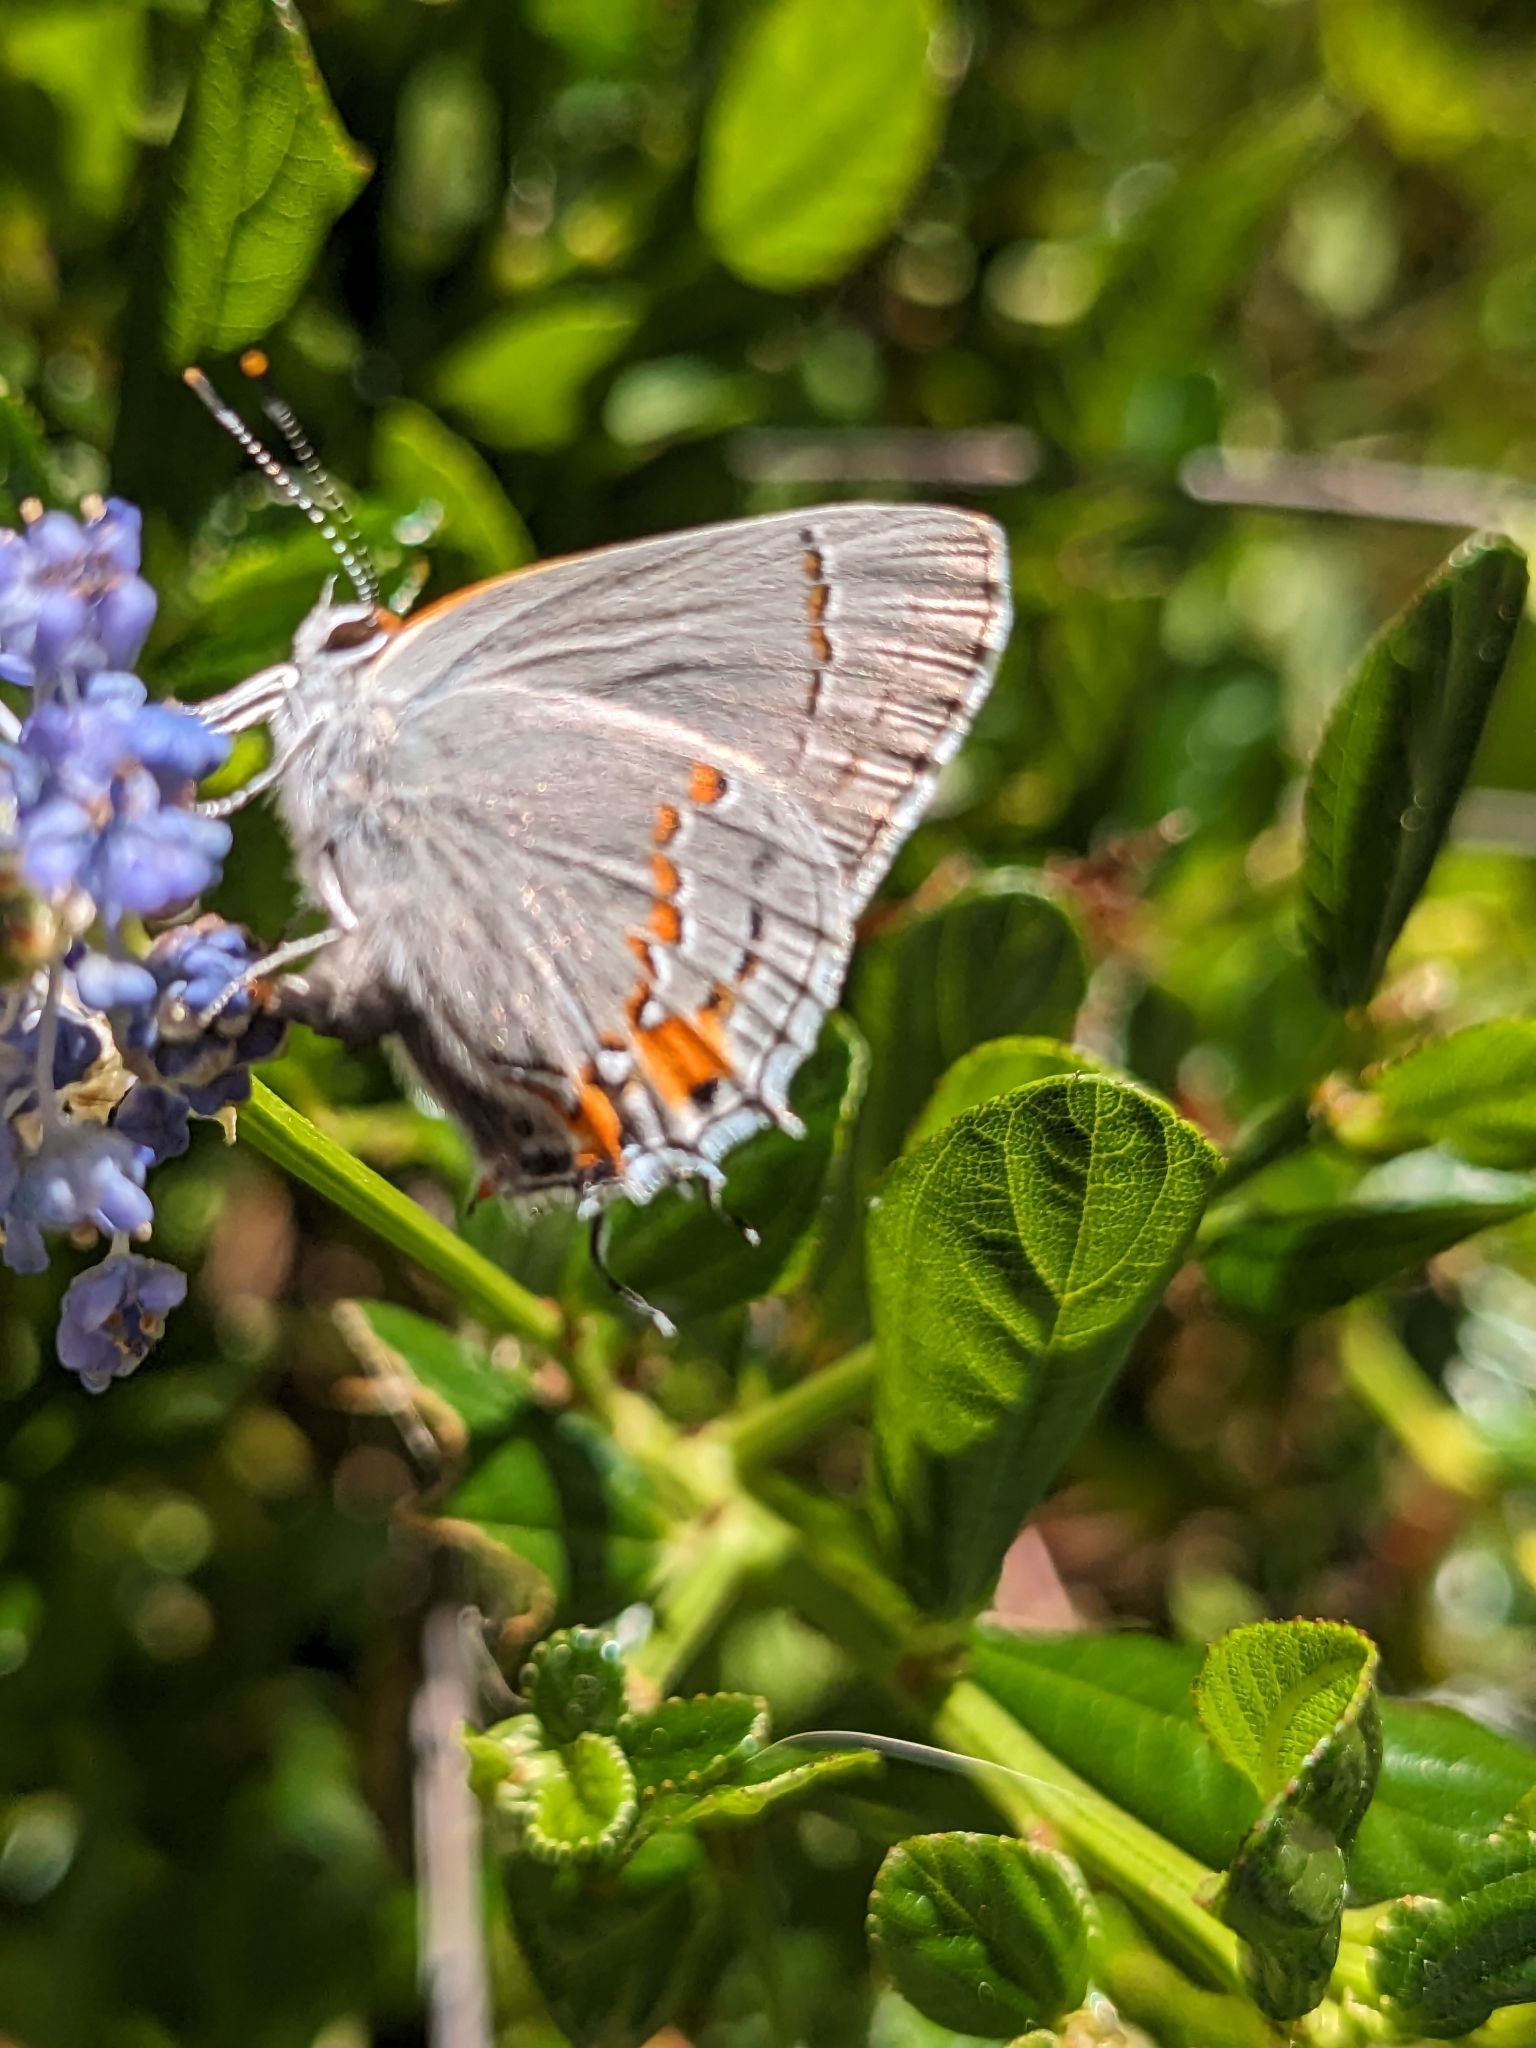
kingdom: Animalia
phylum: Arthropoda
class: Insecta
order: Lepidoptera
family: Lycaenidae
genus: Strymon
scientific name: Strymon melinus
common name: Gray hairstreak
